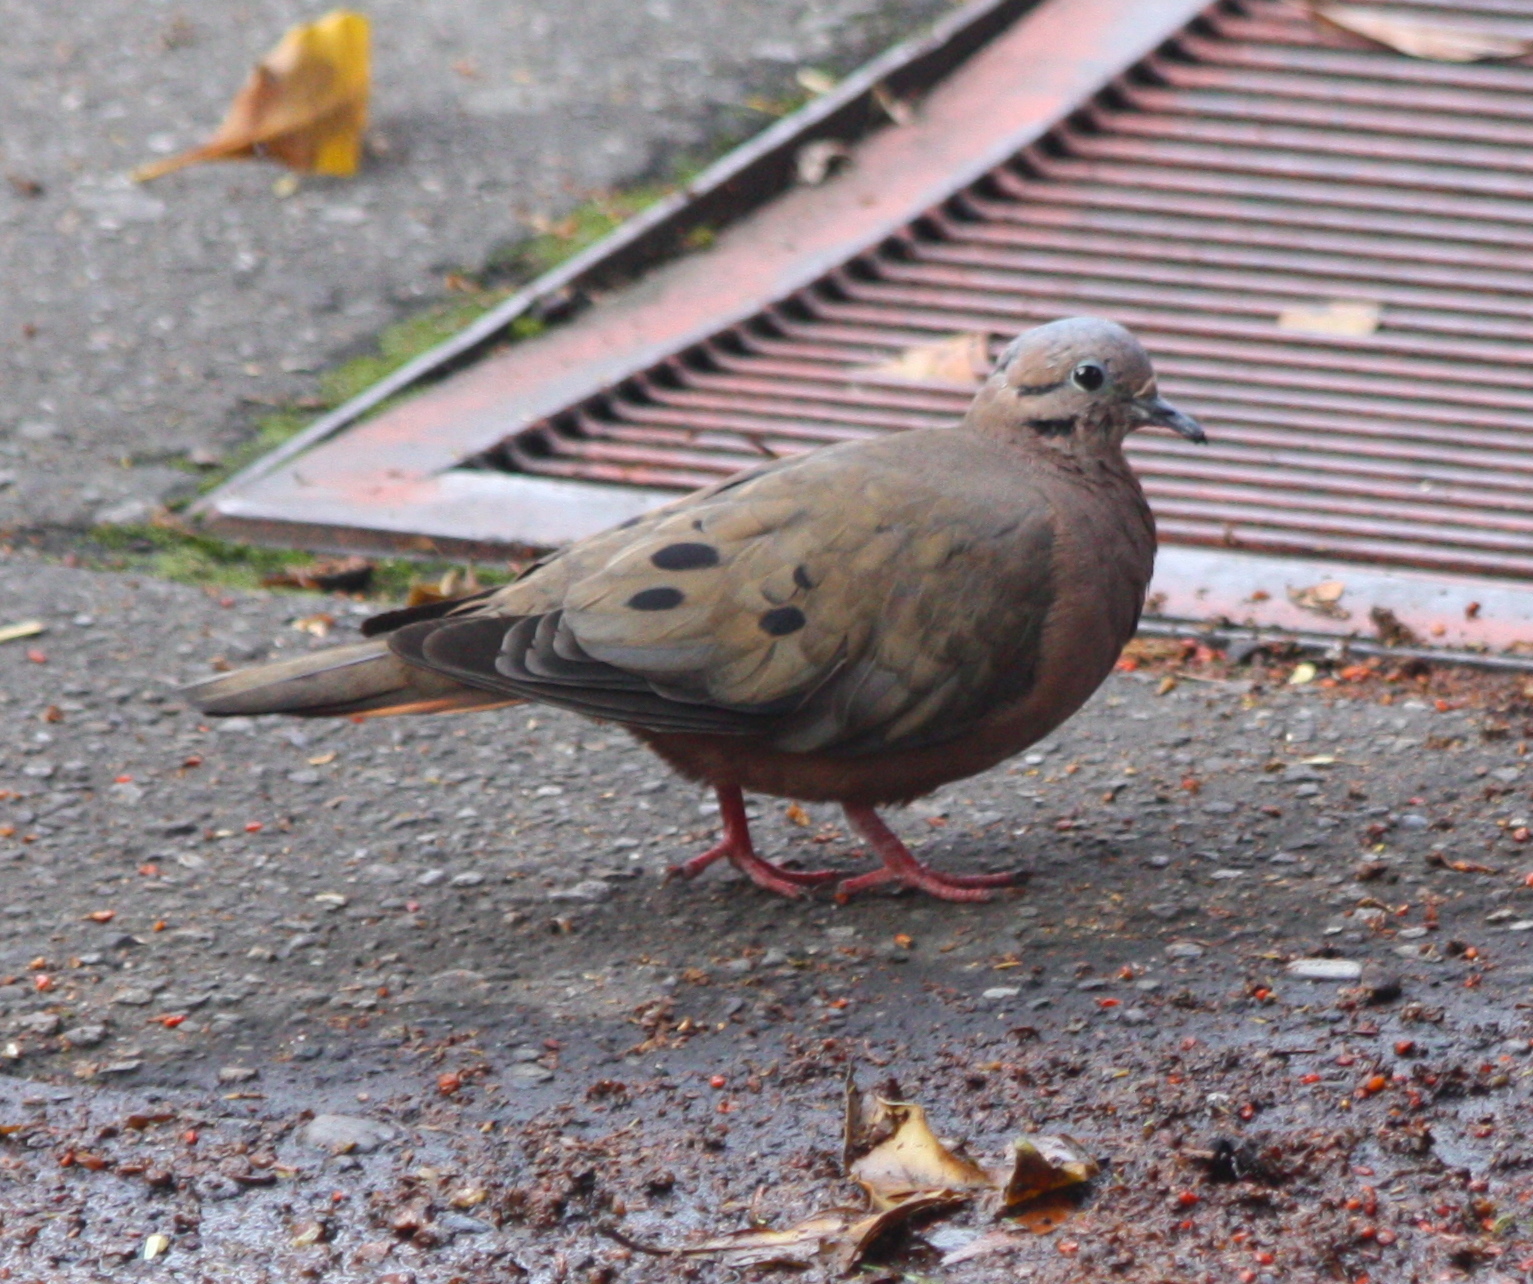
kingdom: Animalia
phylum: Chordata
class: Aves
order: Columbiformes
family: Columbidae
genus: Zenaida
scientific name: Zenaida auriculata
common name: Eared dove
